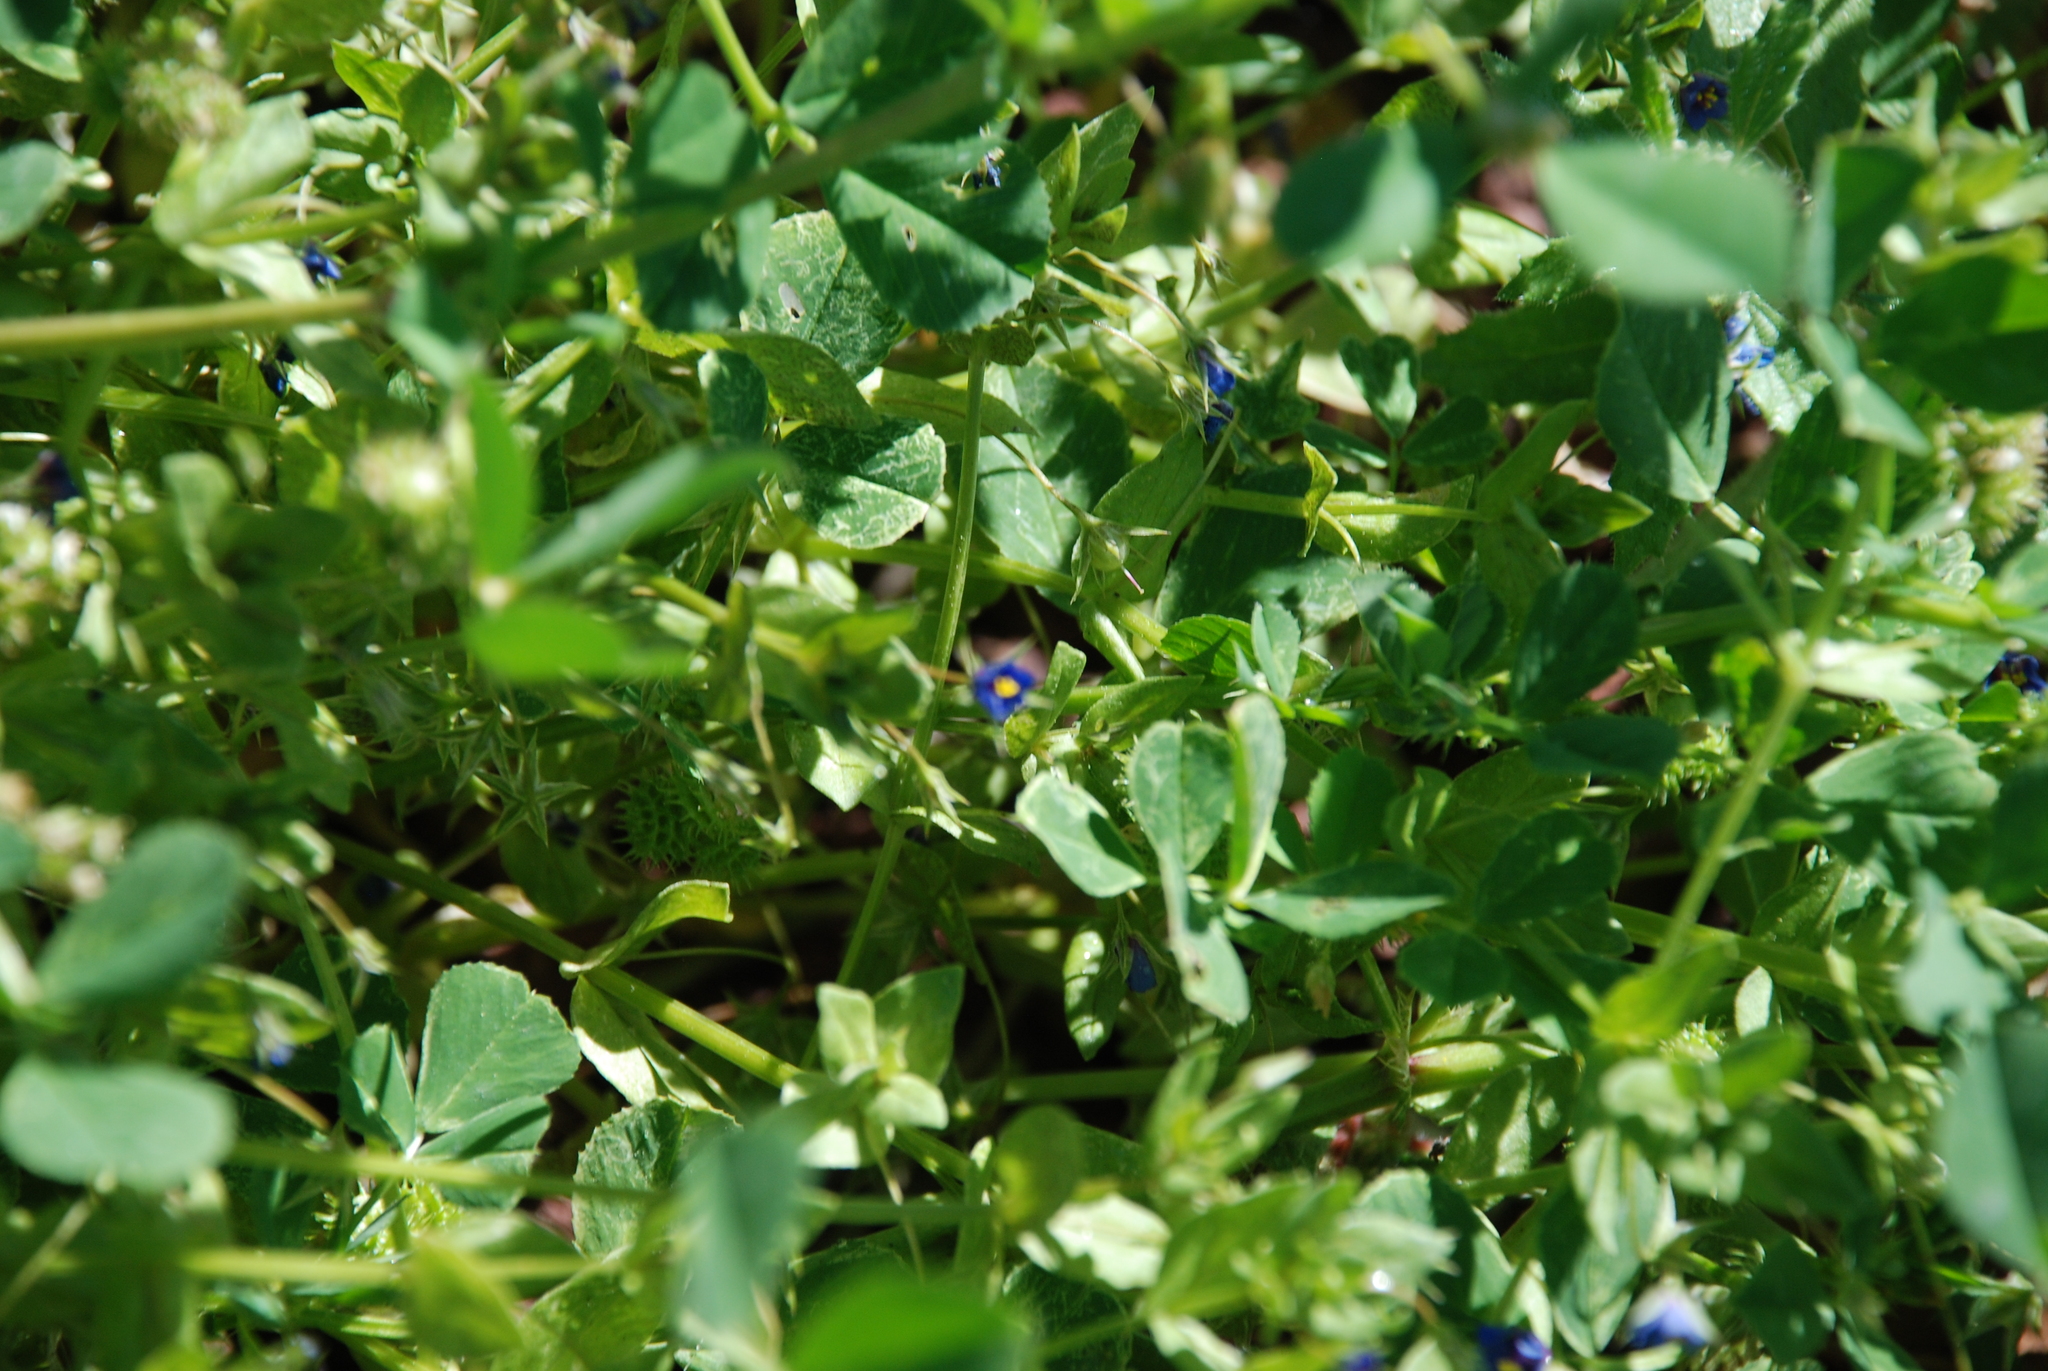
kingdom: Plantae
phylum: Tracheophyta
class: Magnoliopsida
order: Ericales
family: Primulaceae
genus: Lysimachia
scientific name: Lysimachia loeflingii
